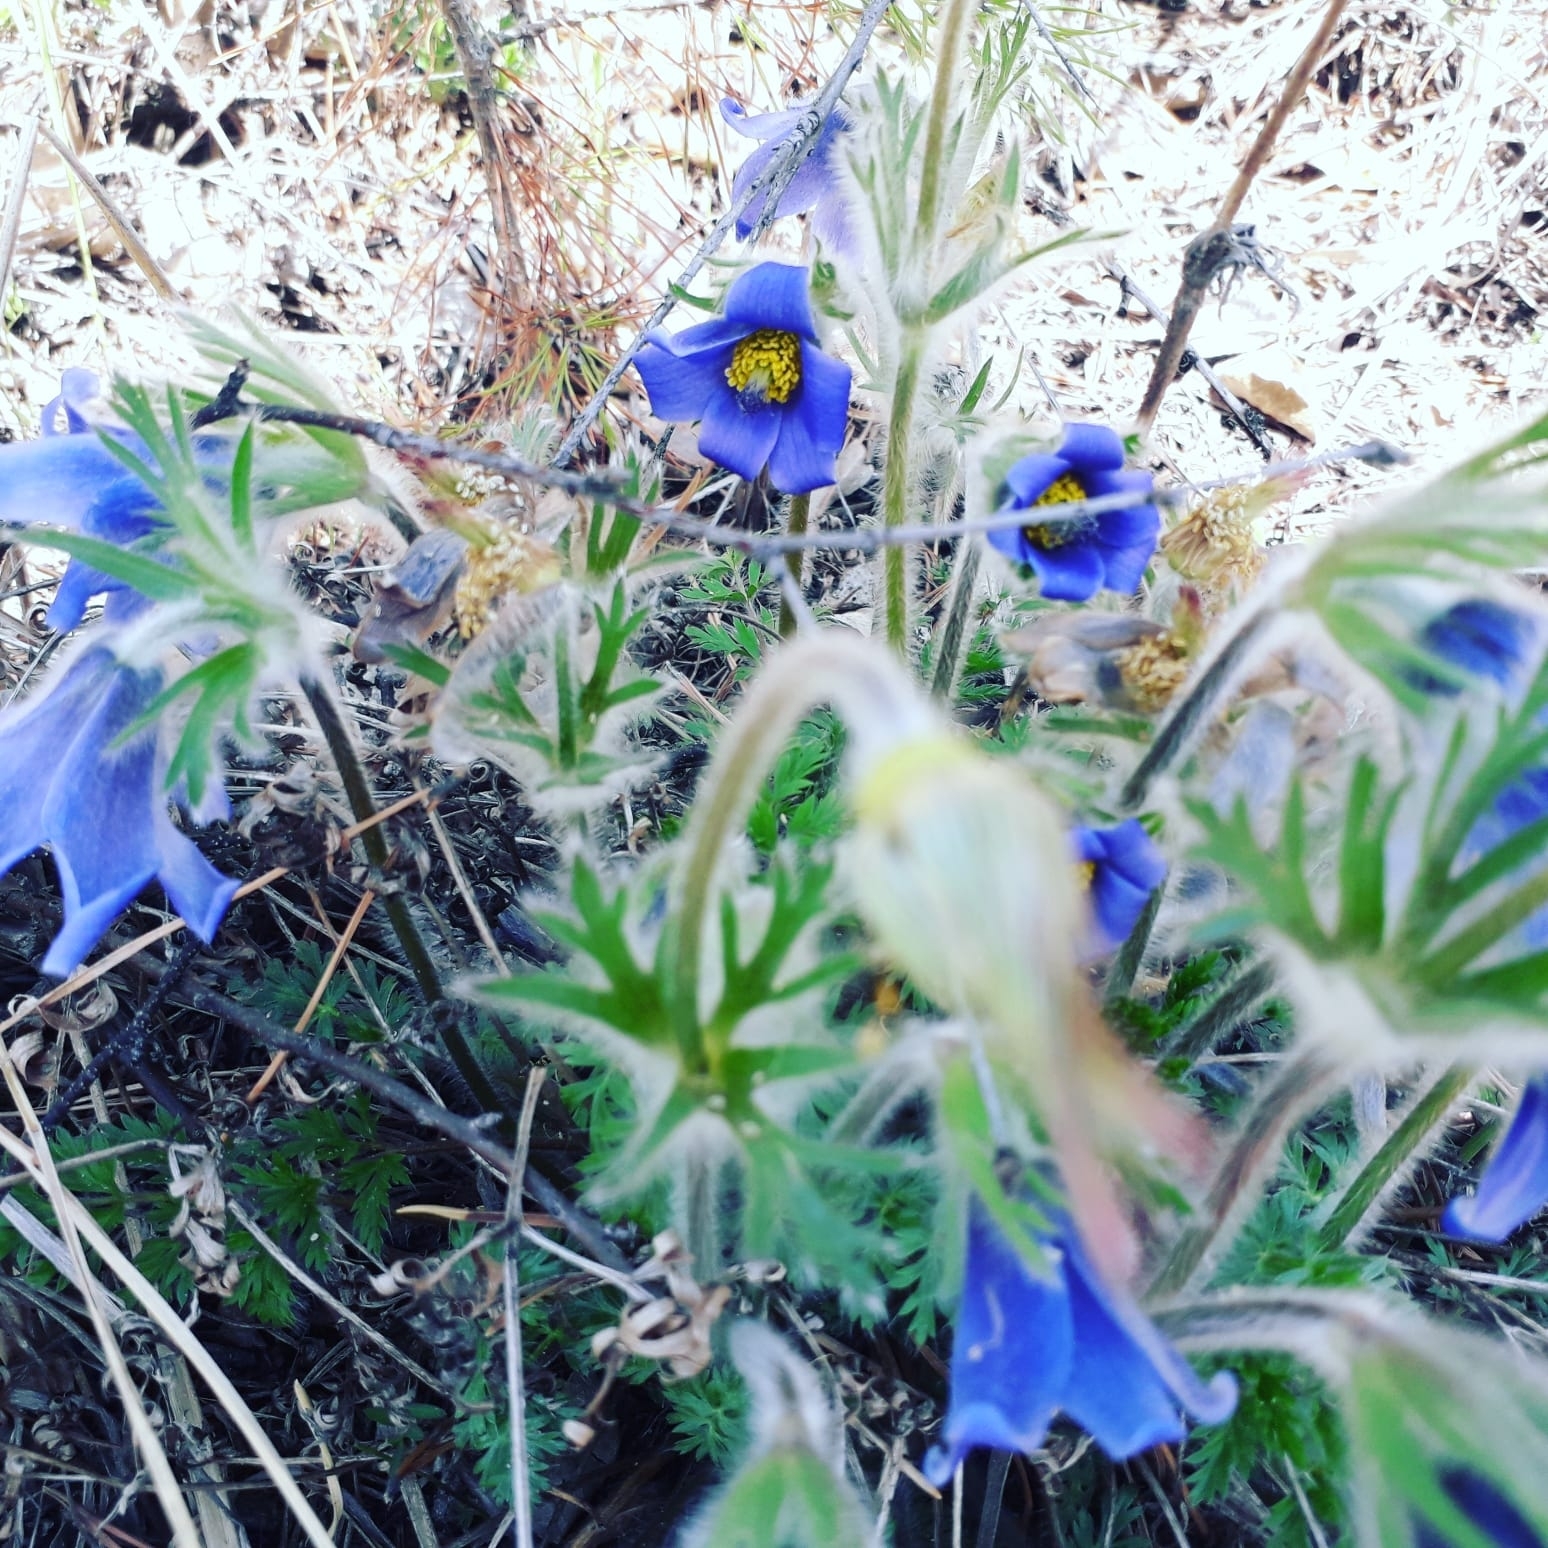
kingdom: Plantae
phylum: Tracheophyta
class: Magnoliopsida
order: Ranunculales
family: Ranunculaceae
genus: Pulsatilla
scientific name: Pulsatilla ambigua
